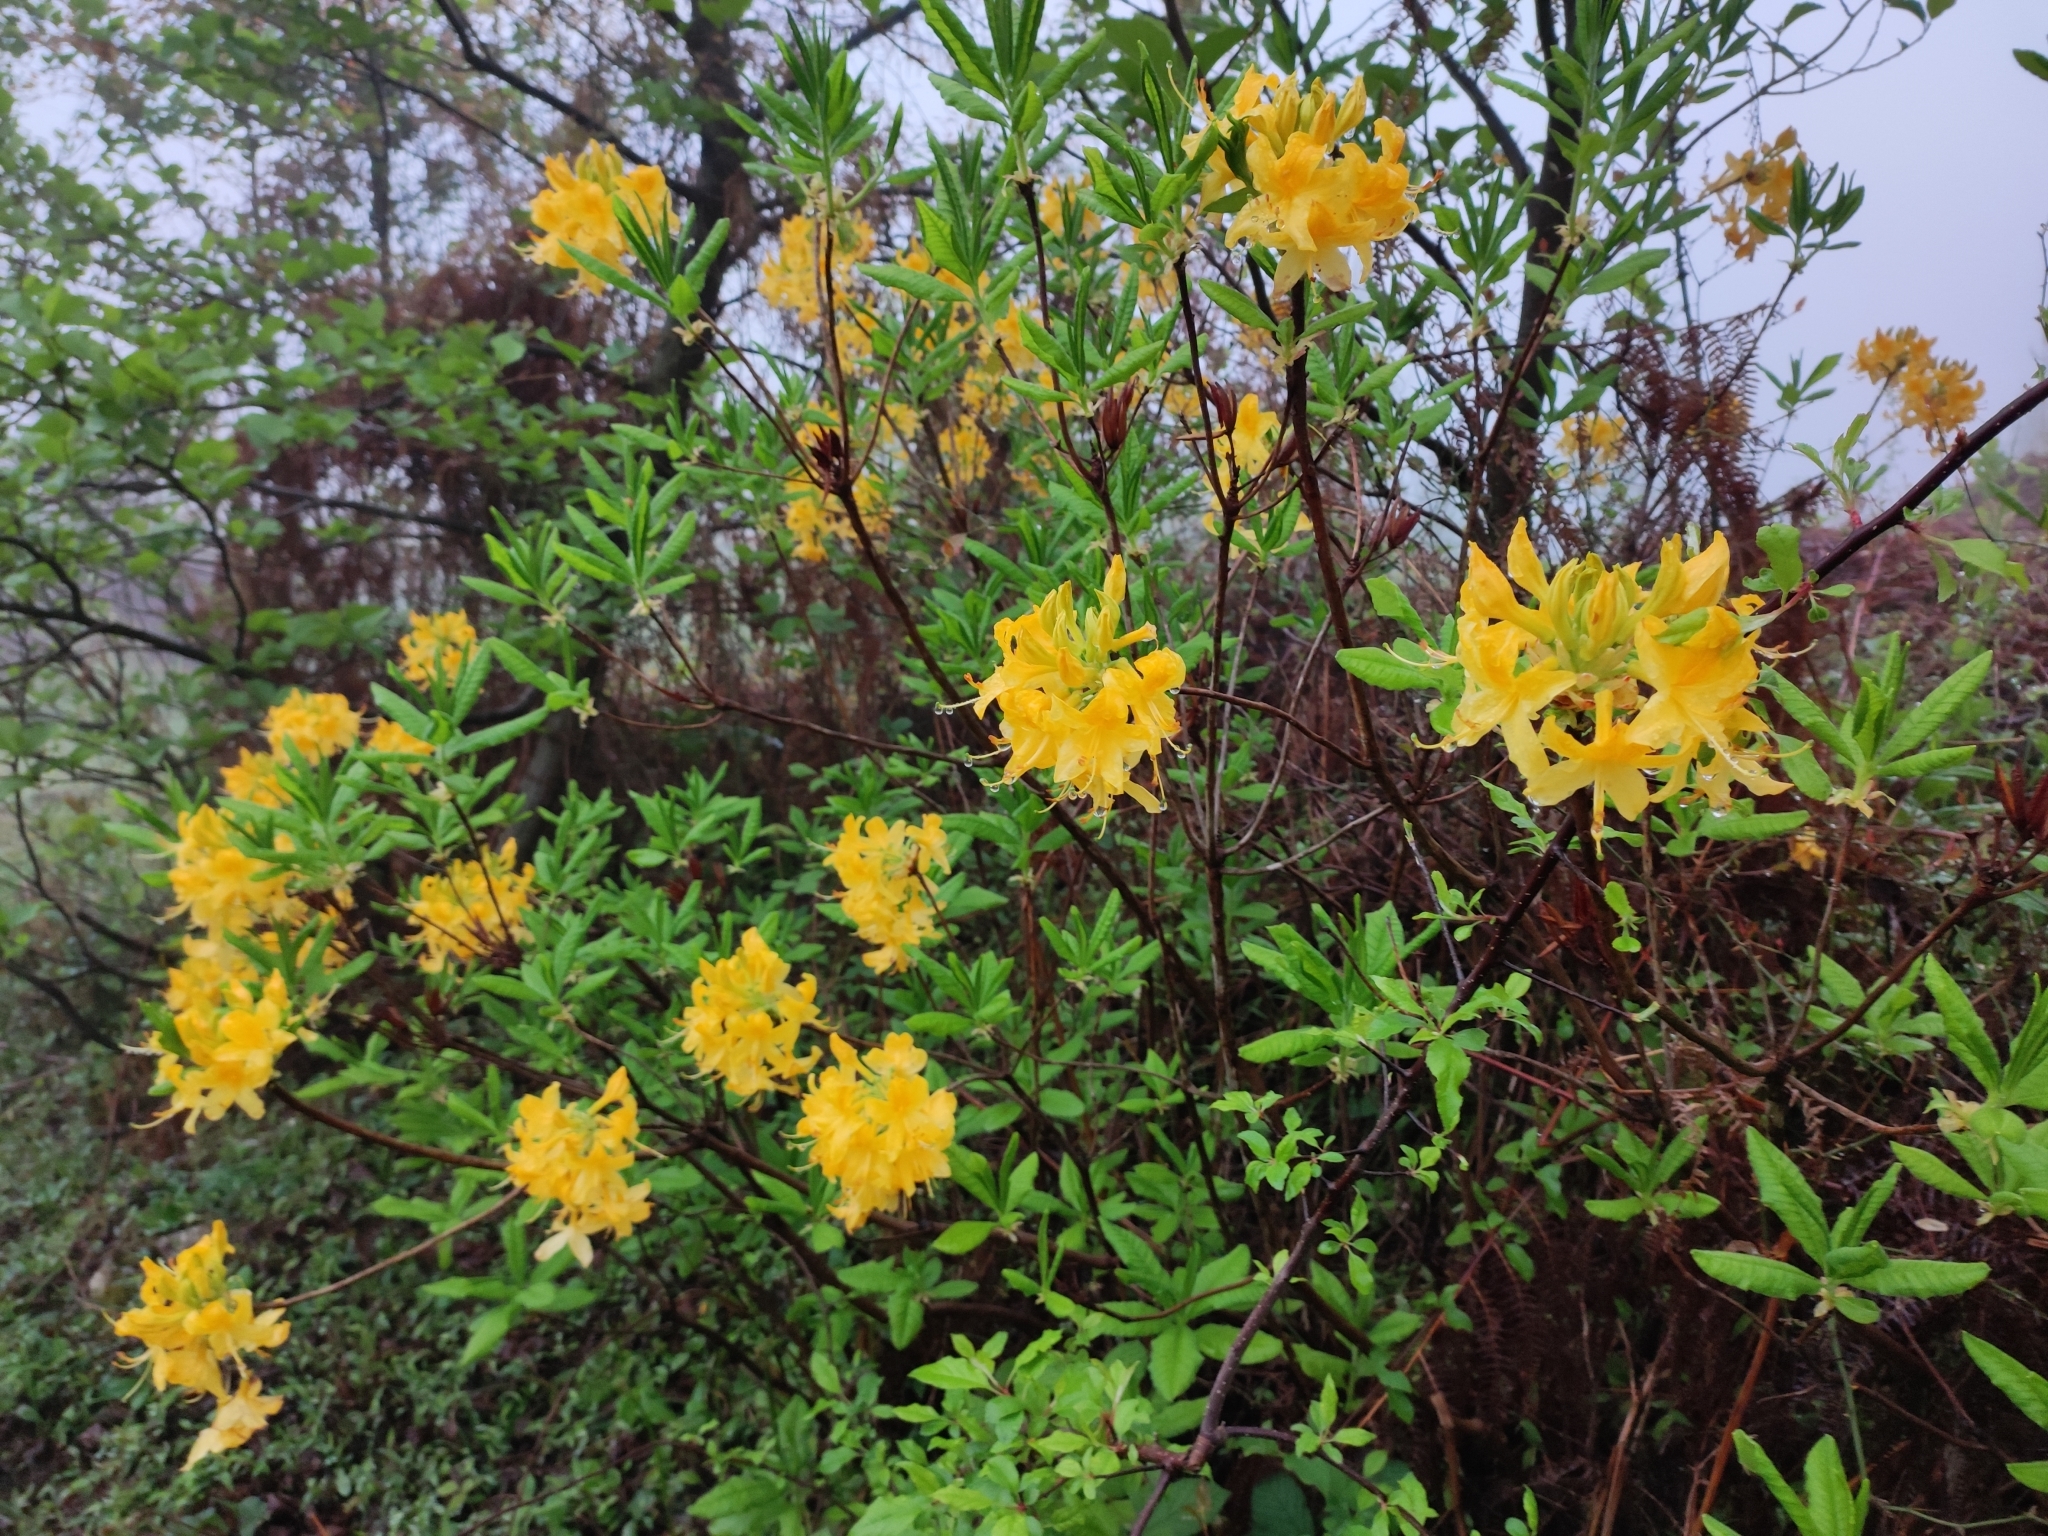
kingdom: Plantae
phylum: Tracheophyta
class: Magnoliopsida
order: Ericales
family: Ericaceae
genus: Rhododendron
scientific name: Rhododendron luteum
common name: Yellow azalea
